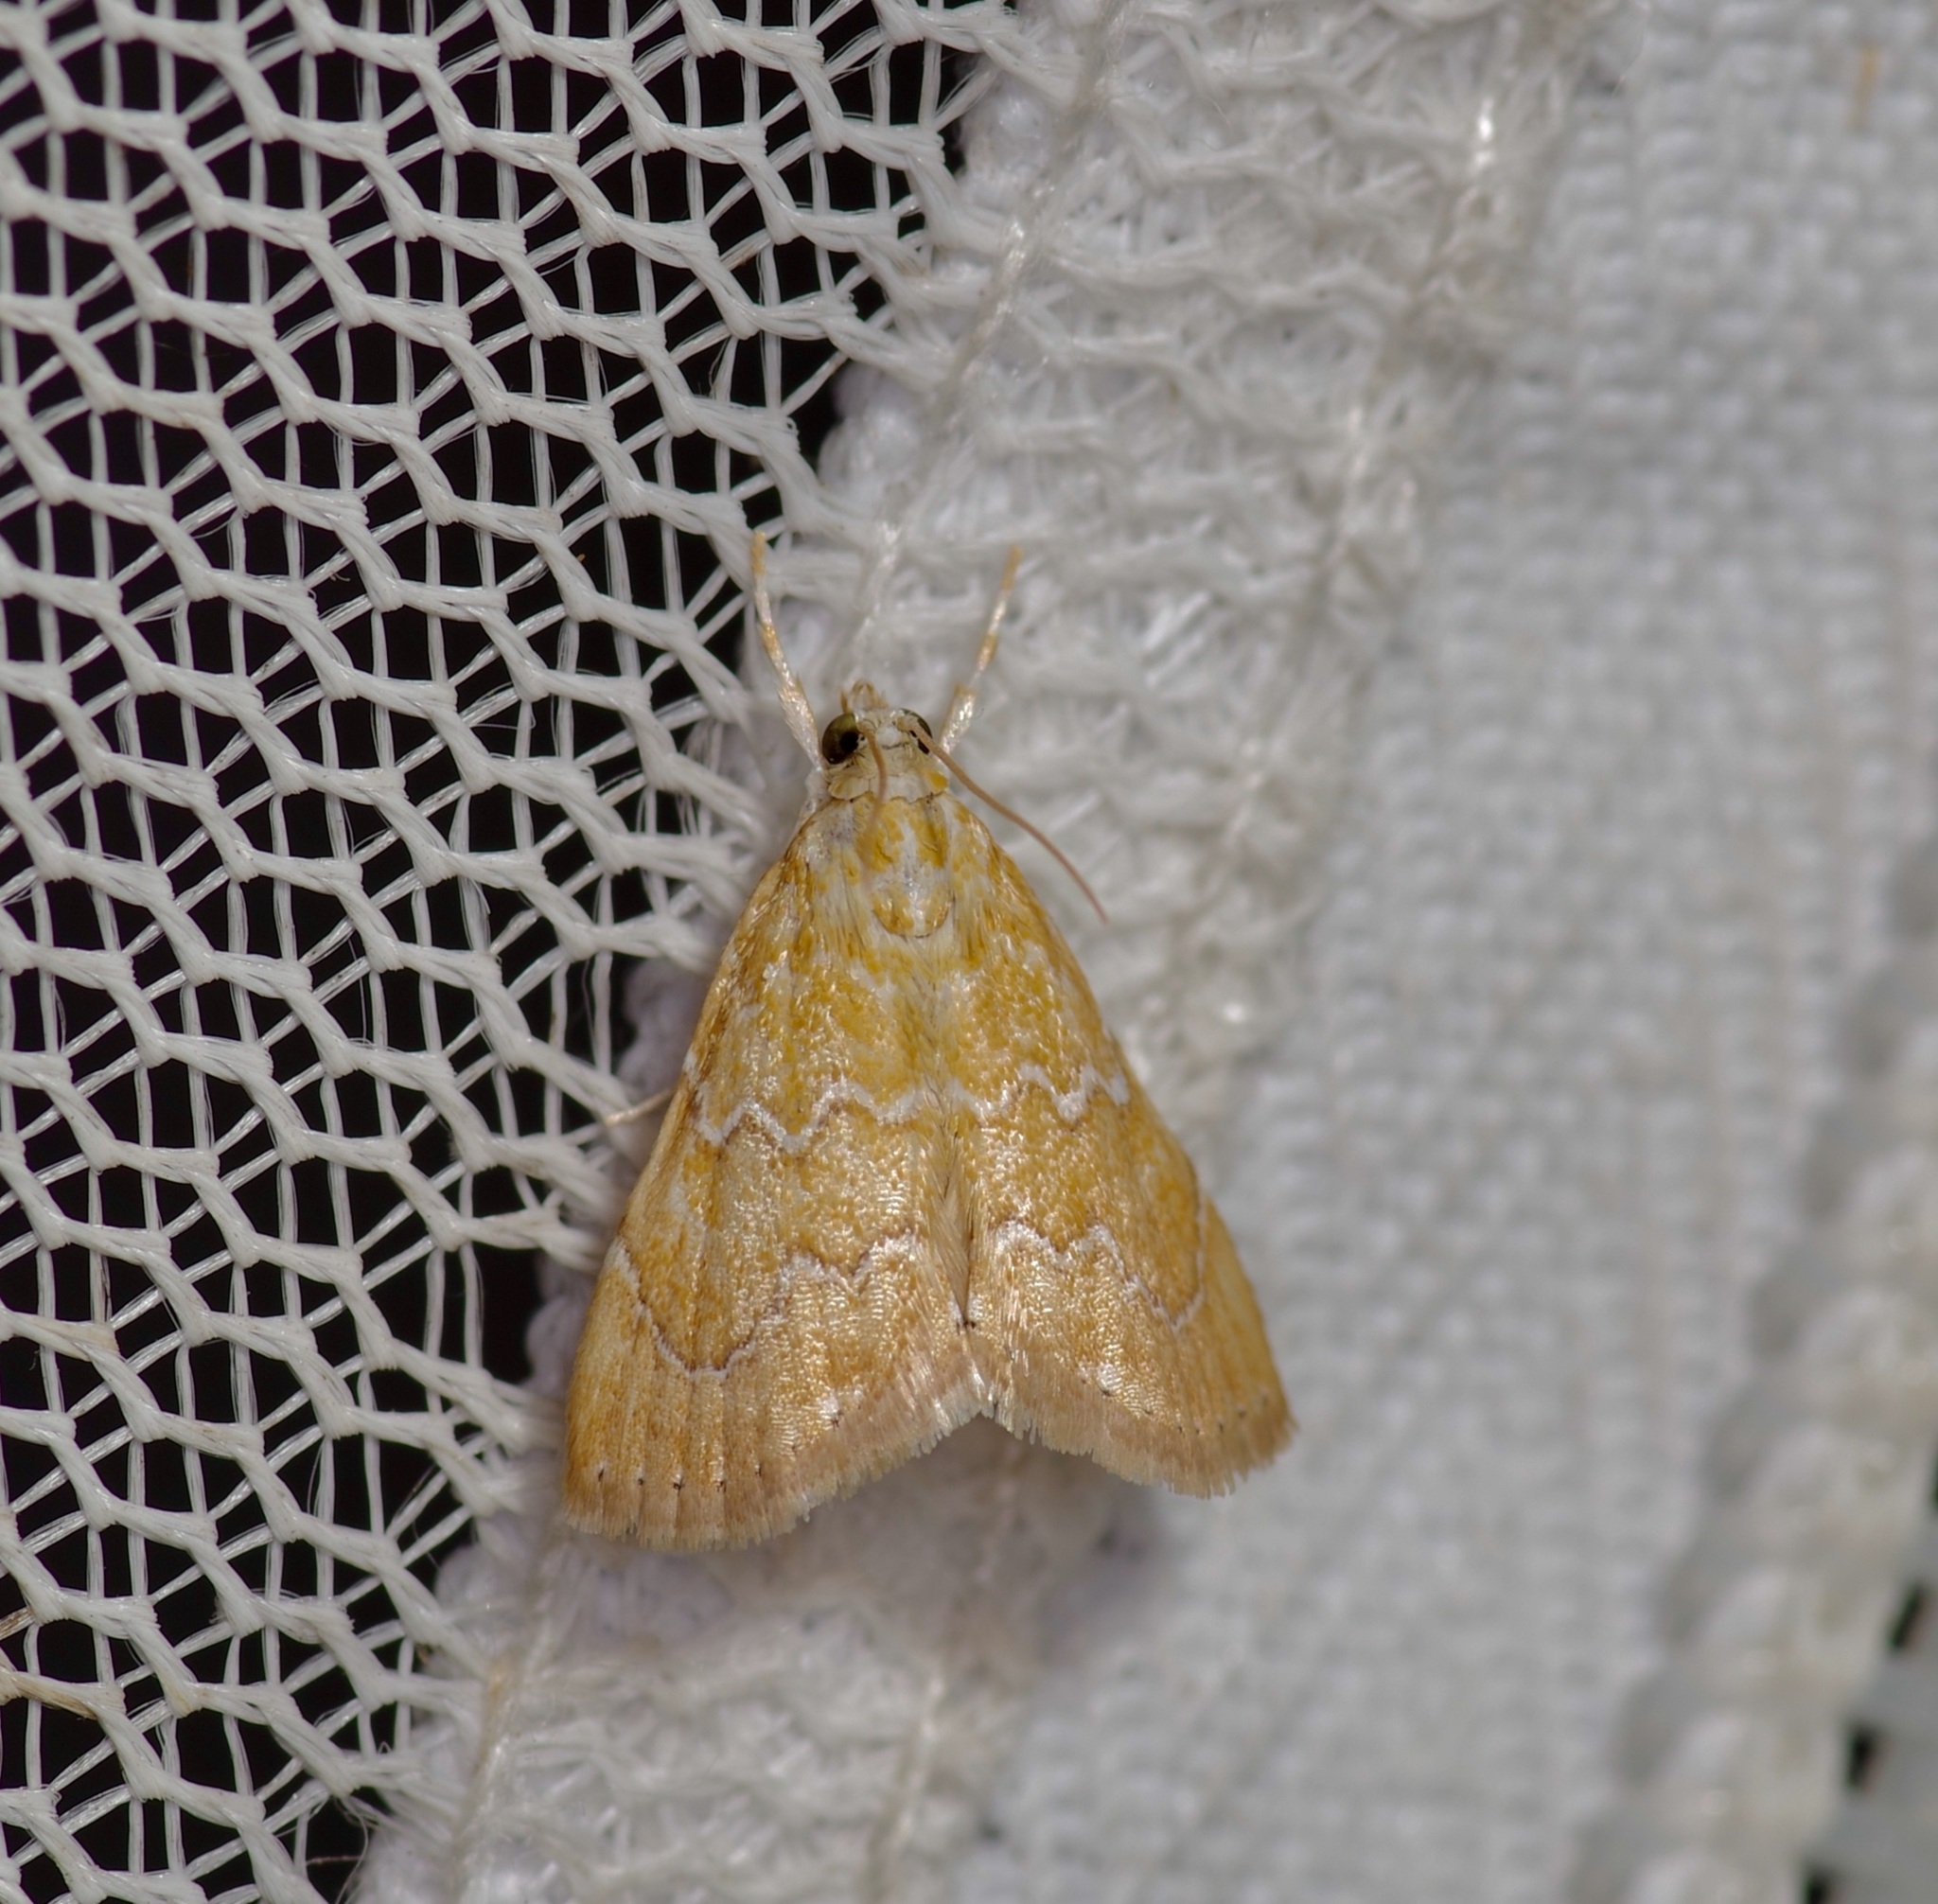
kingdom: Animalia
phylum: Arthropoda
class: Insecta
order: Lepidoptera
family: Crambidae
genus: Glaphyria
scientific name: Glaphyria sesquistrialis
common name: White-roped glaphyria
